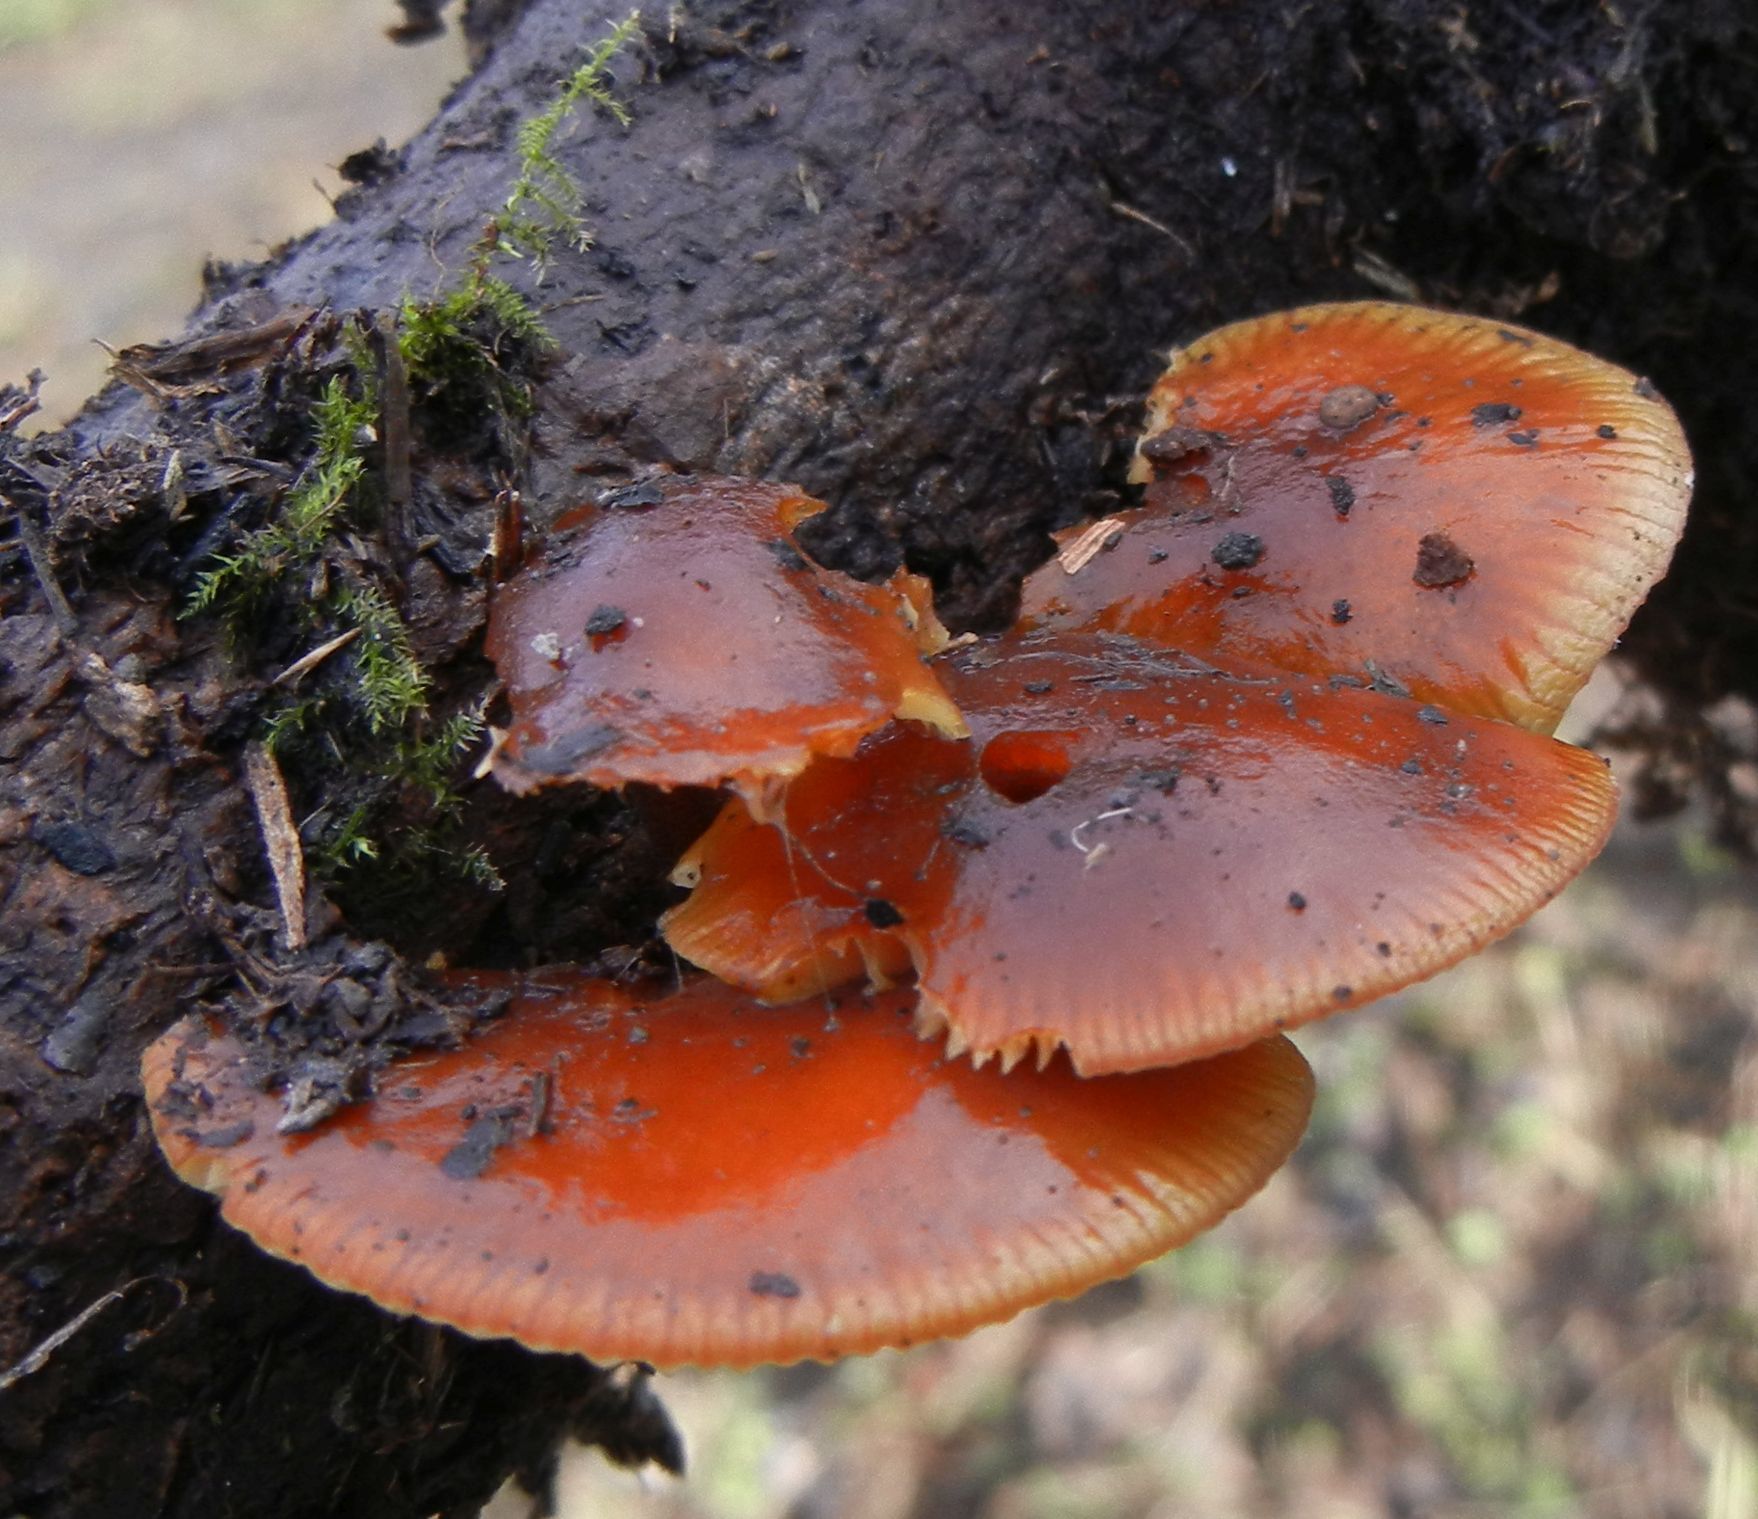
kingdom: Fungi
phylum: Basidiomycota
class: Agaricomycetes
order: Agaricales
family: Physalacriaceae
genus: Flammulina
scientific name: Flammulina
